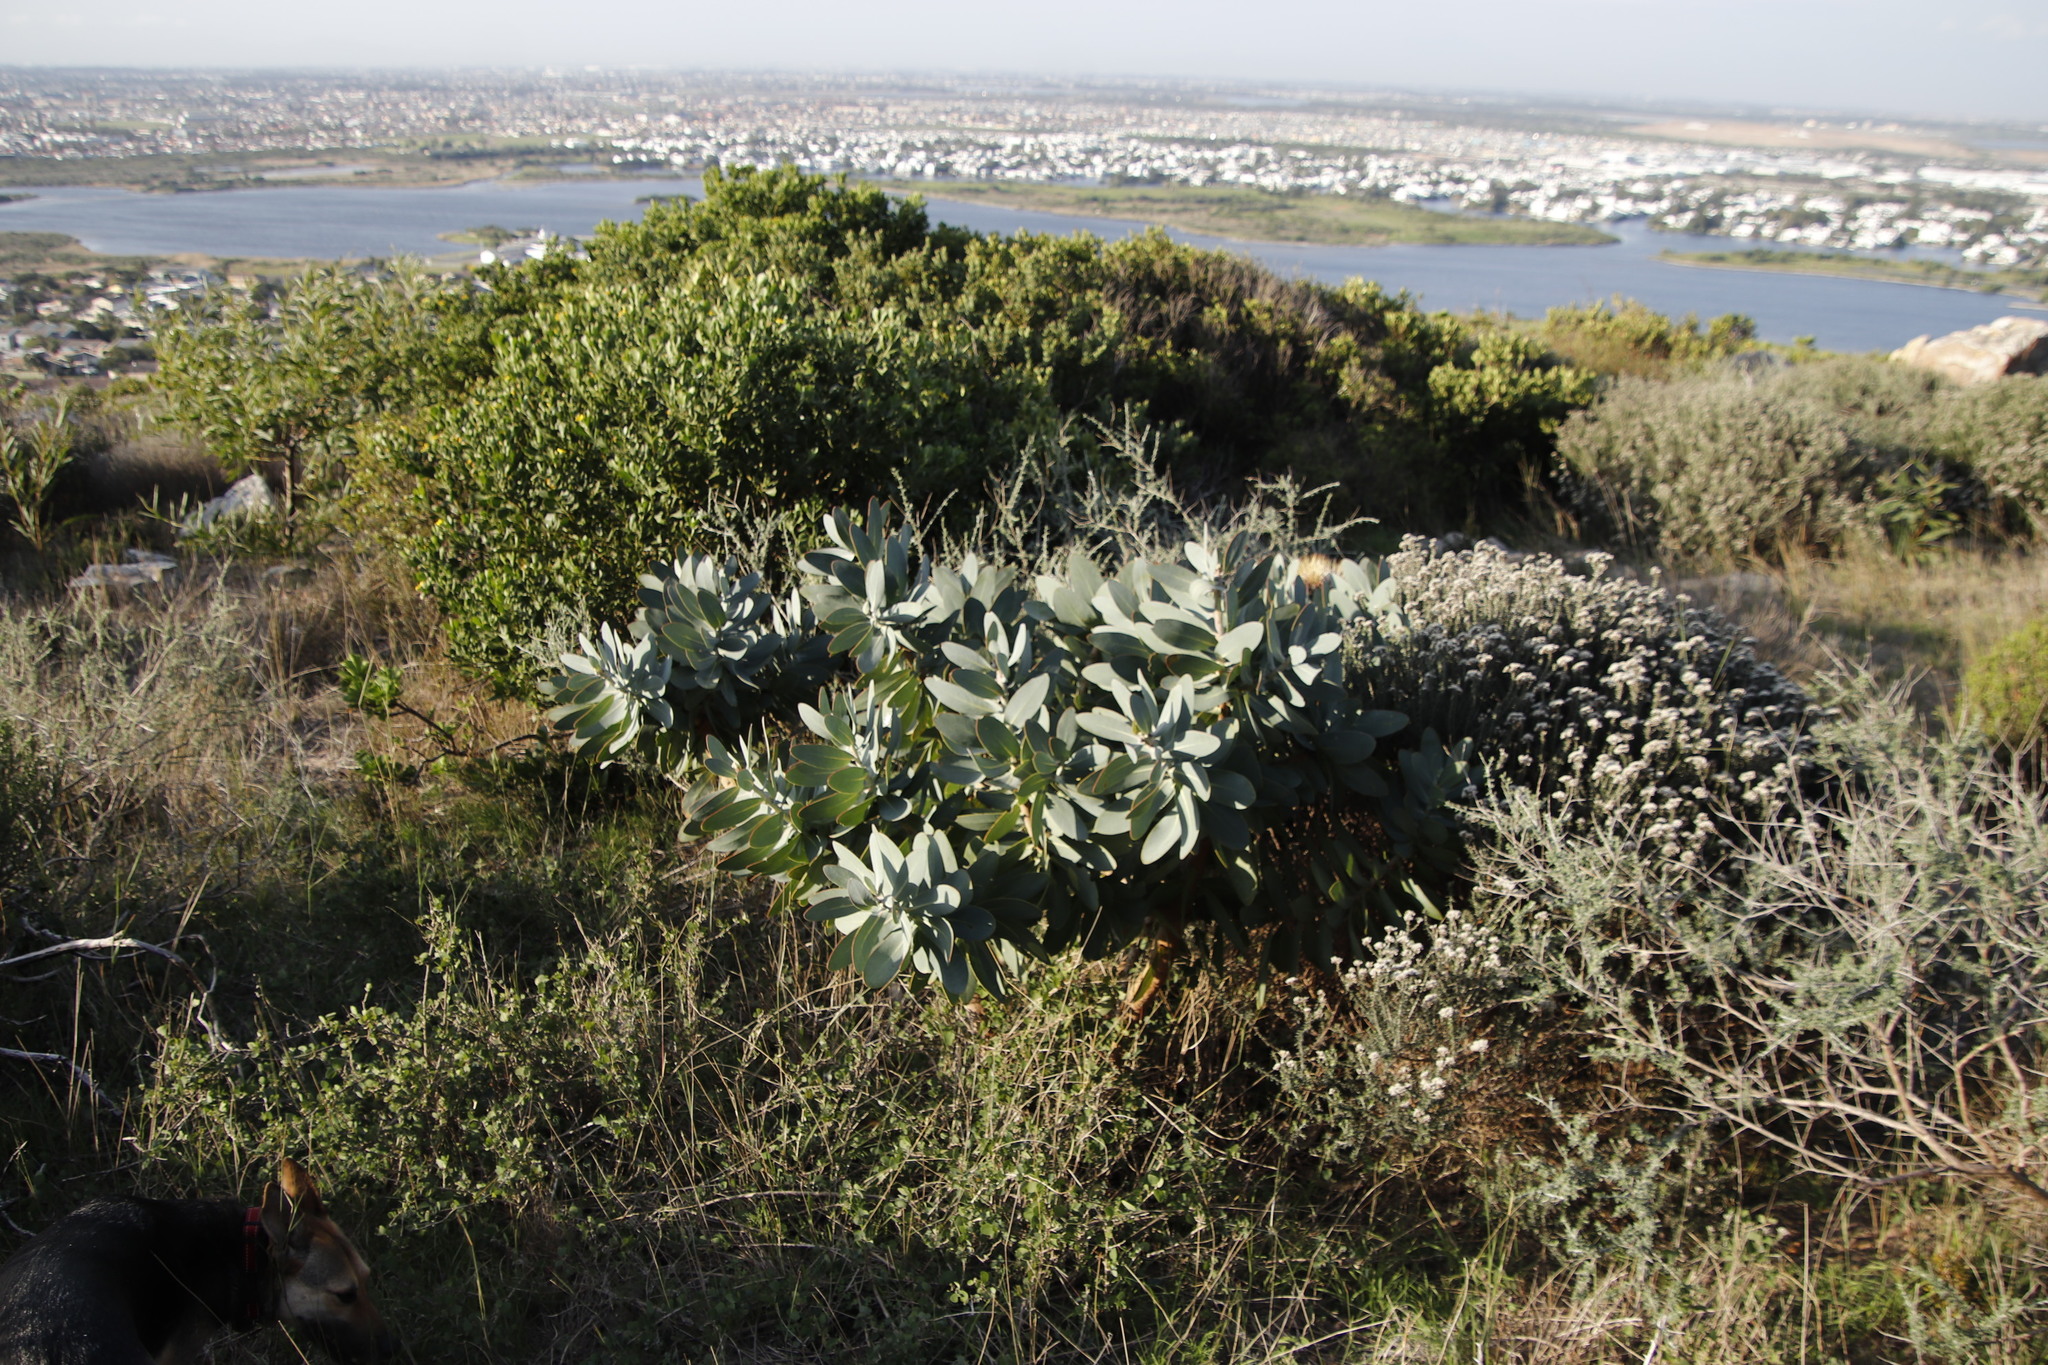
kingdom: Plantae
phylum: Tracheophyta
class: Magnoliopsida
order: Proteales
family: Proteaceae
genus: Protea
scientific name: Protea nitida
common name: Tree protea
